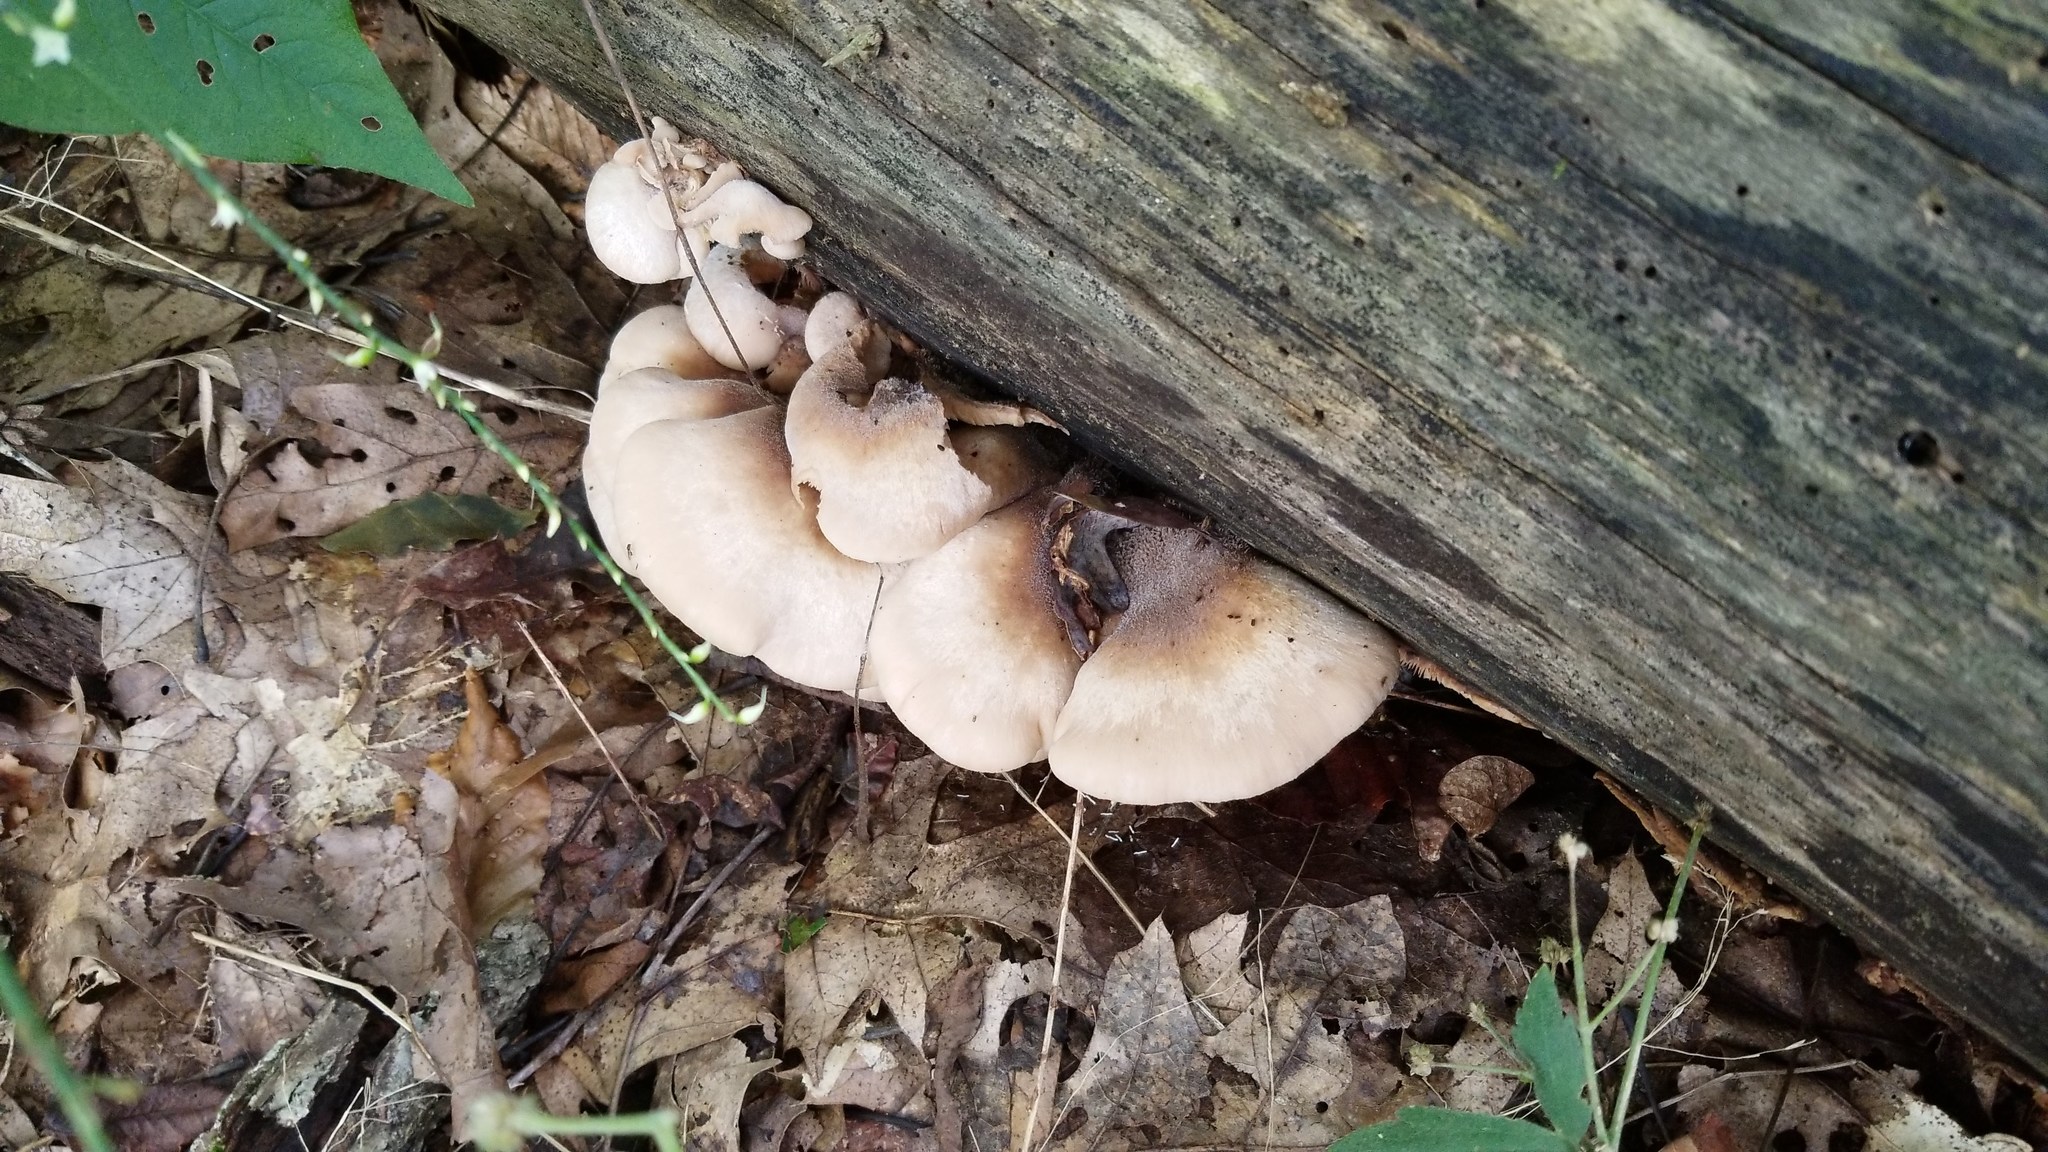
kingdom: Fungi
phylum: Basidiomycota
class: Agaricomycetes
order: Russulales
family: Auriscalpiaceae
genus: Lentinellus
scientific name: Lentinellus ursinus
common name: Bear lentinus
